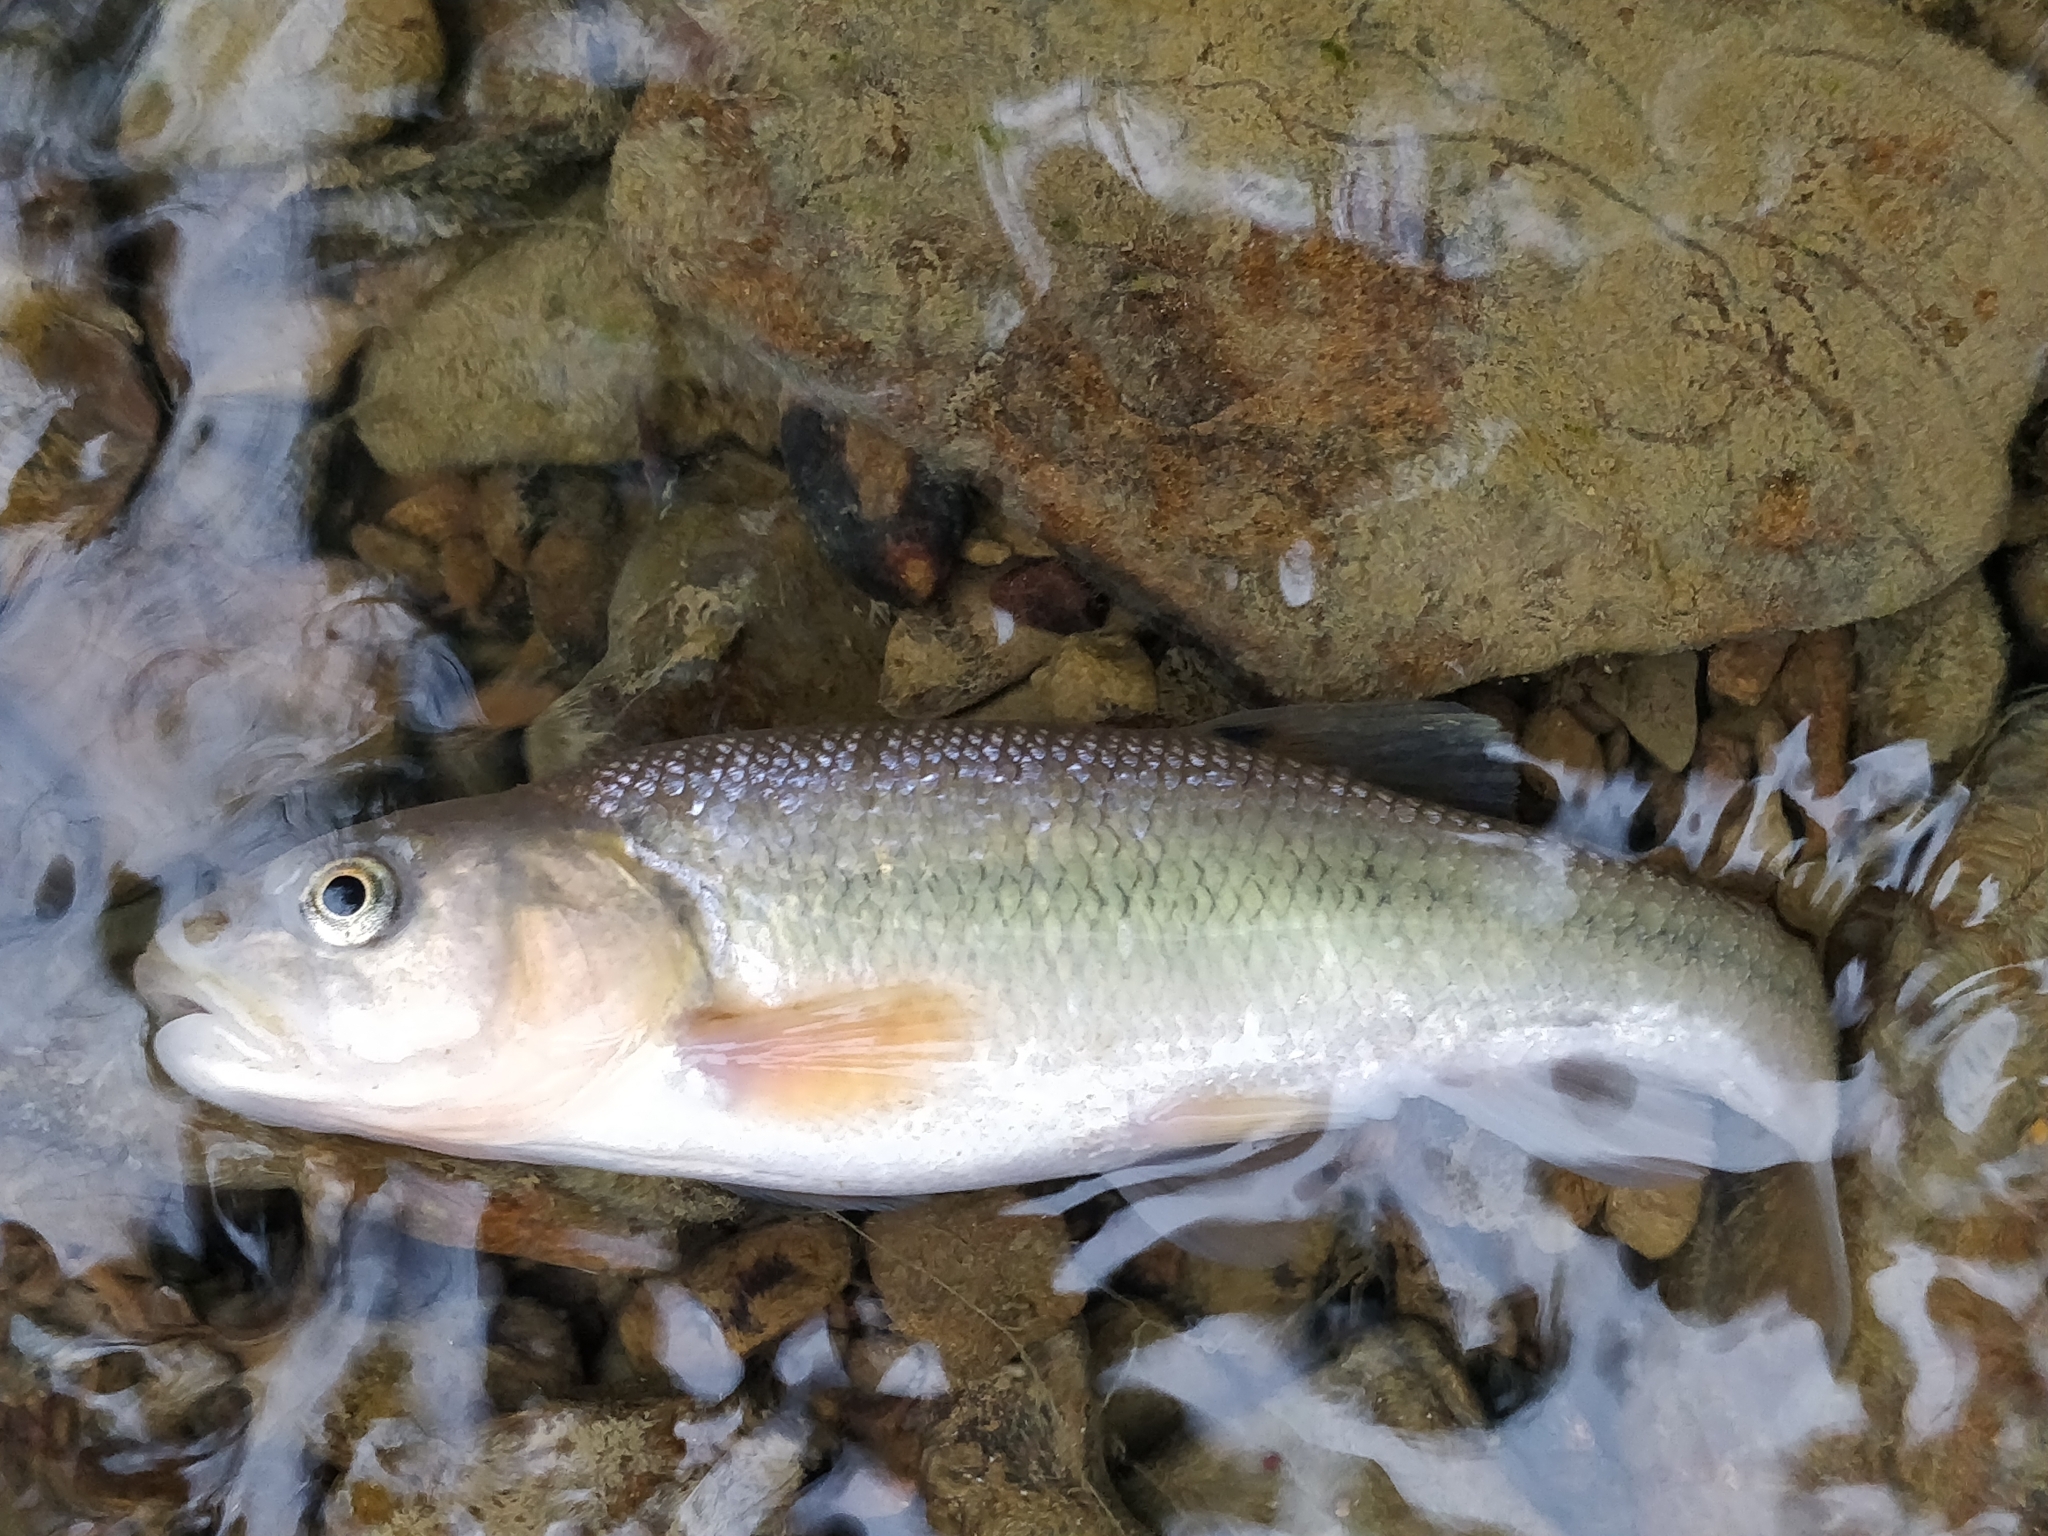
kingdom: Animalia
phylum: Chordata
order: Cypriniformes
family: Cyprinidae
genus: Semotilus
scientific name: Semotilus atromaculatus
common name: Creek chub
